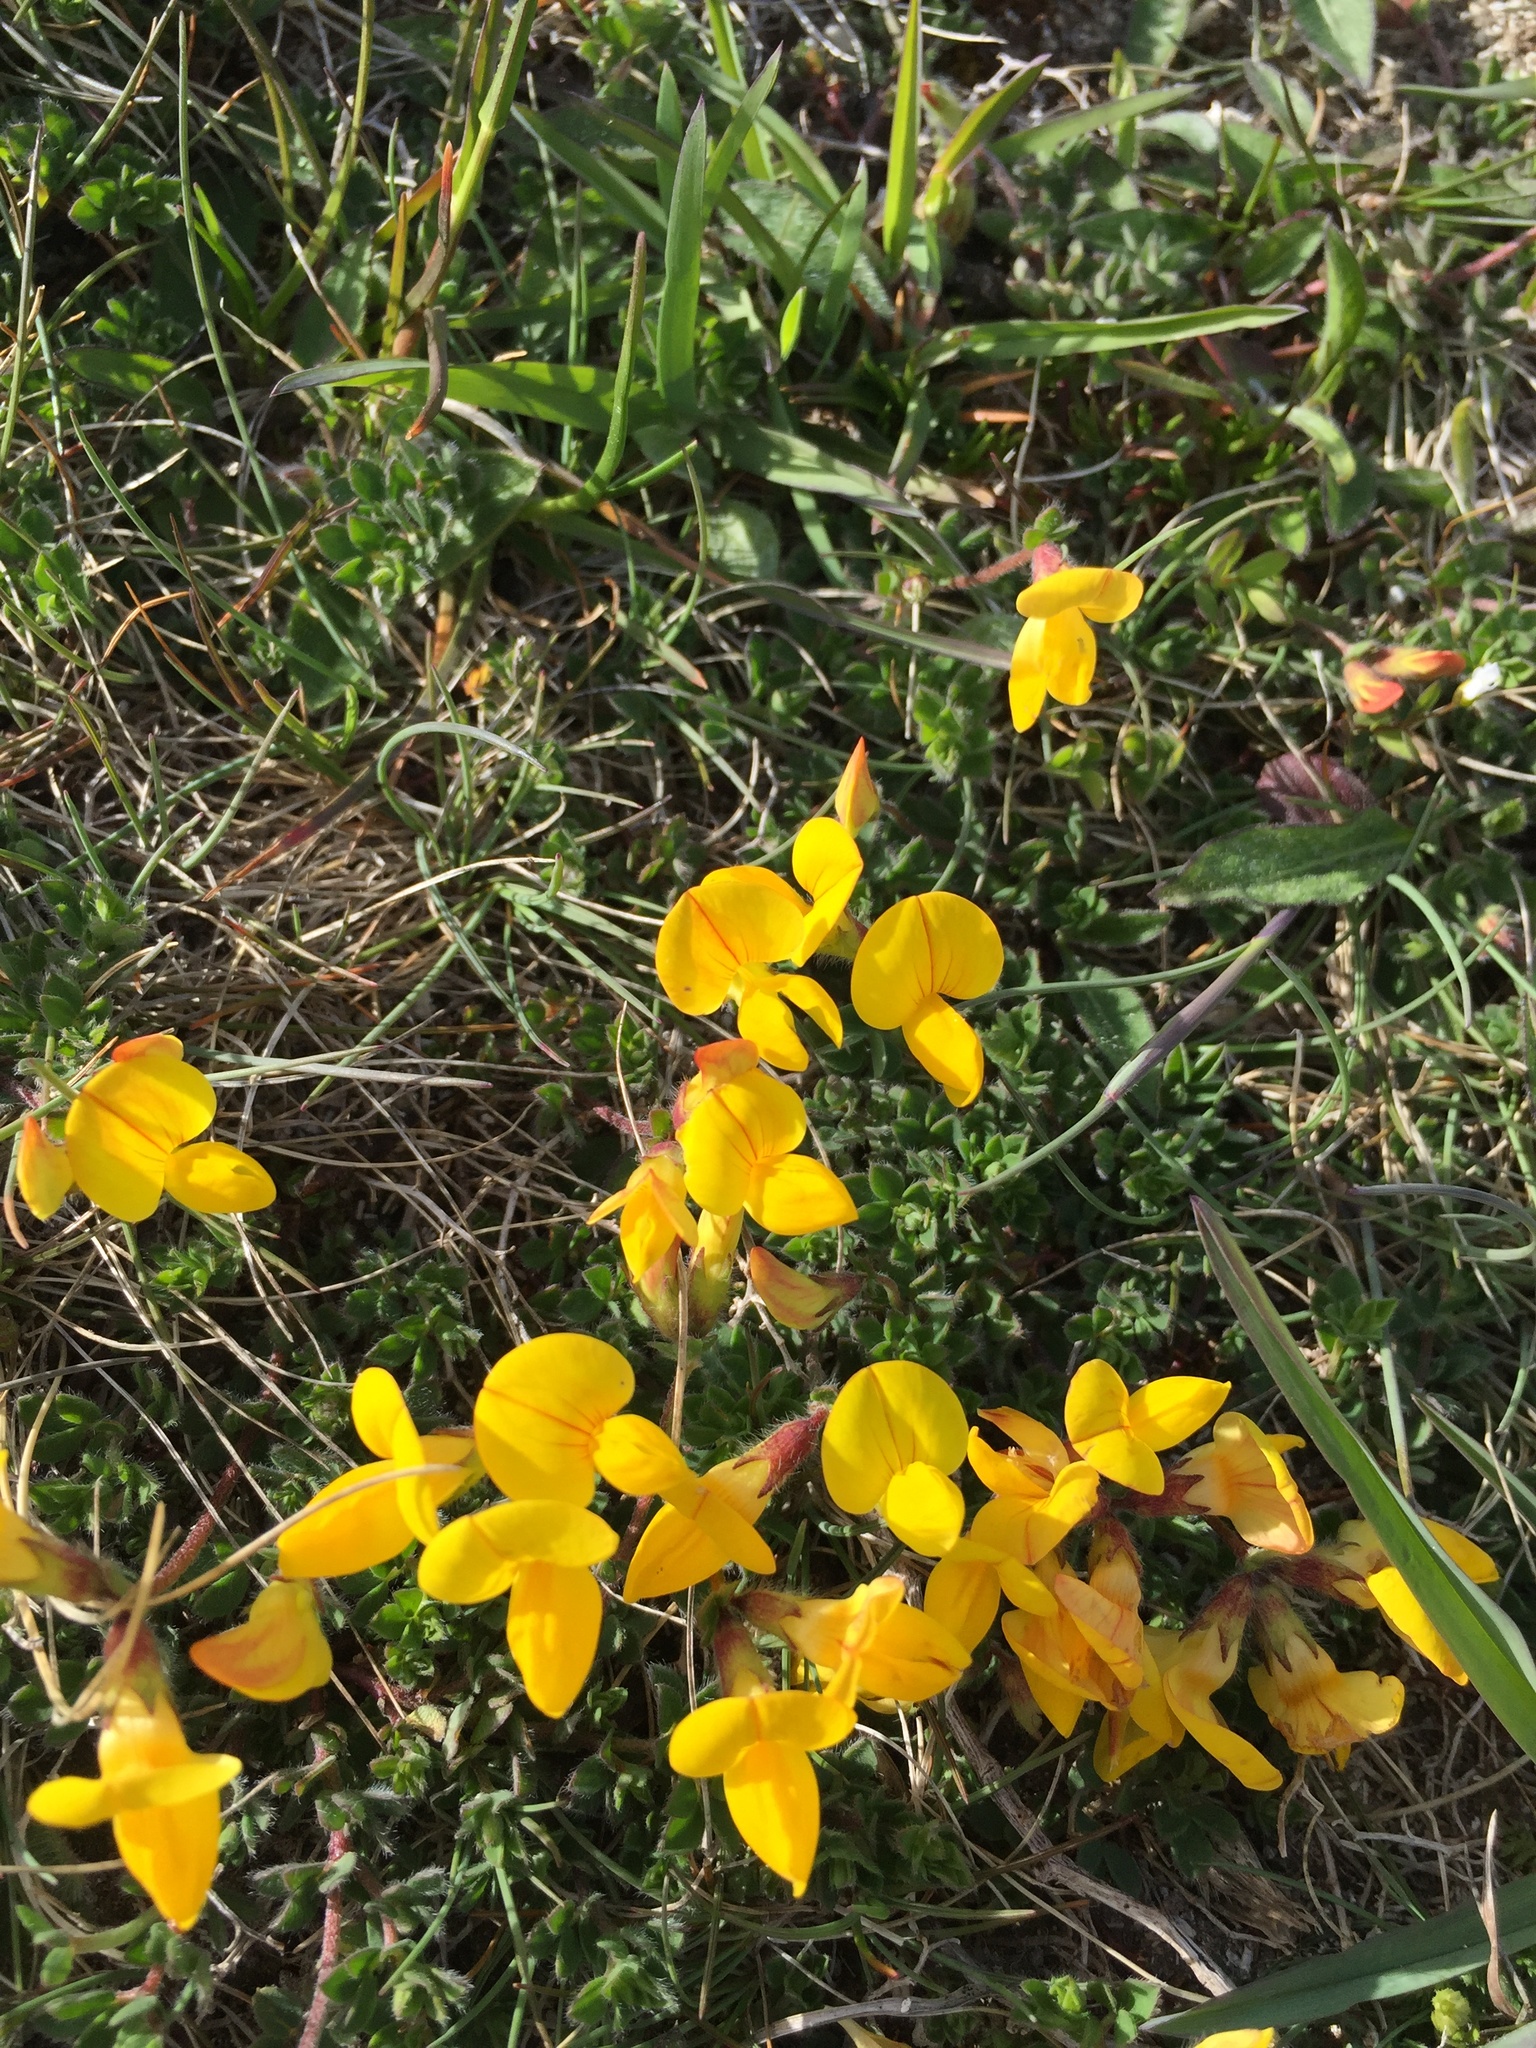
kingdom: Plantae
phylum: Tracheophyta
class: Magnoliopsida
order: Fabales
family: Fabaceae
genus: Lotus
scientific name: Lotus corniculatus
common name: Common bird's-foot-trefoil
